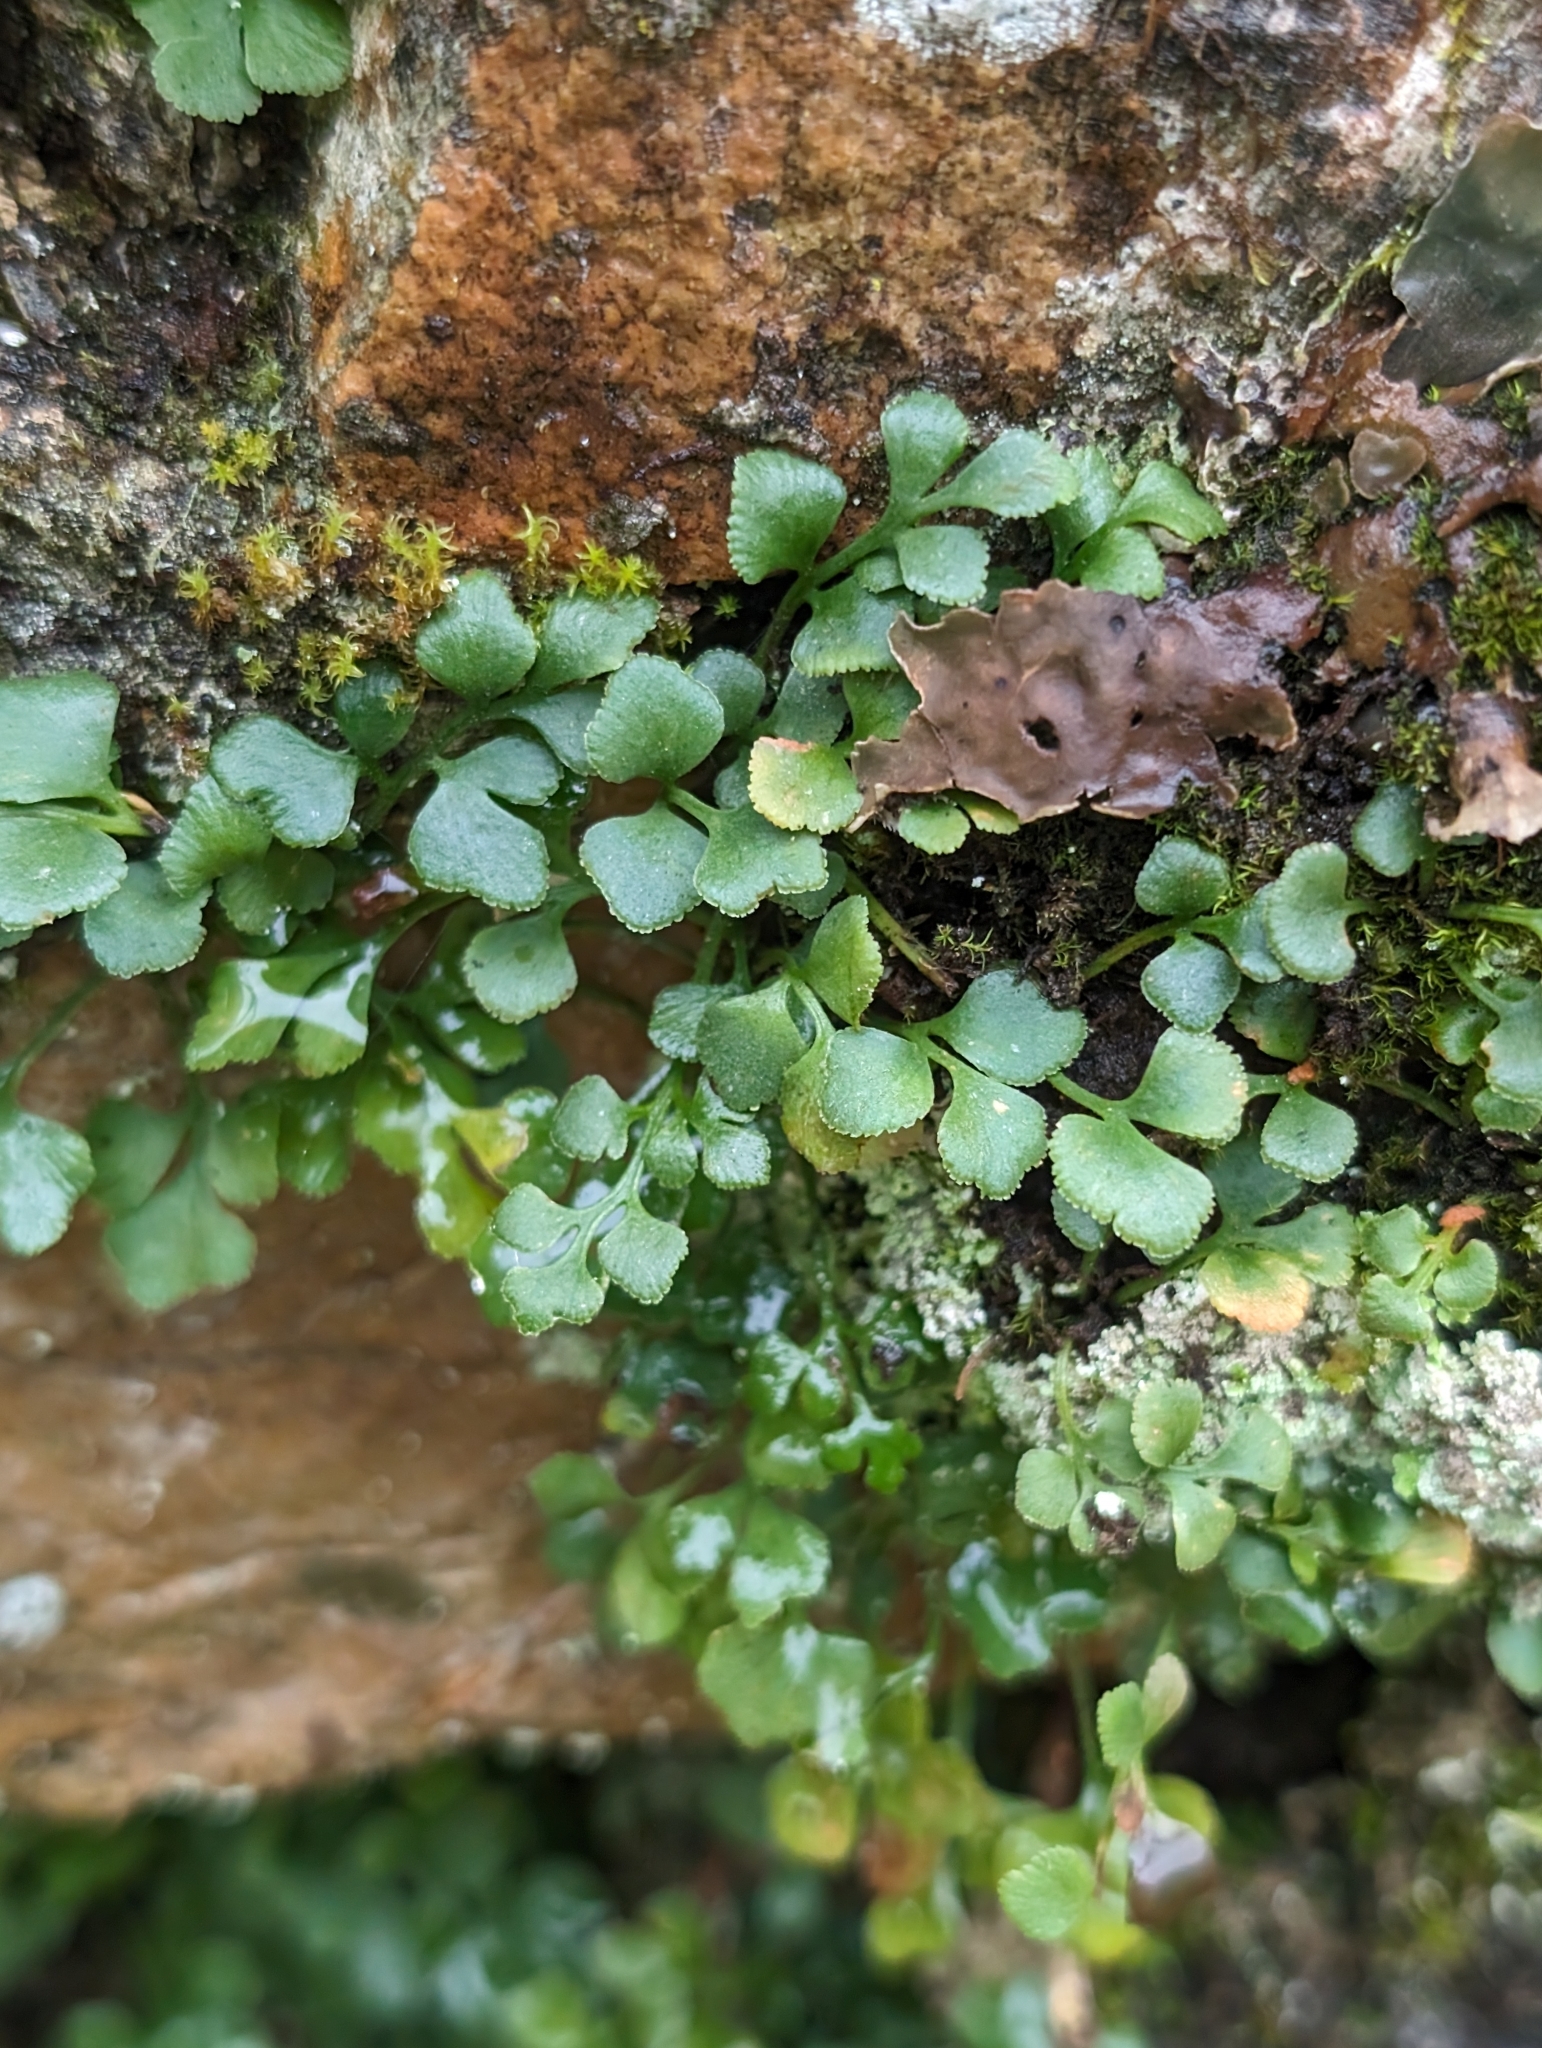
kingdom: Plantae
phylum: Tracheophyta
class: Polypodiopsida
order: Polypodiales
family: Aspleniaceae
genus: Asplenium
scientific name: Asplenium ruta-muraria
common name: Wall-rue
